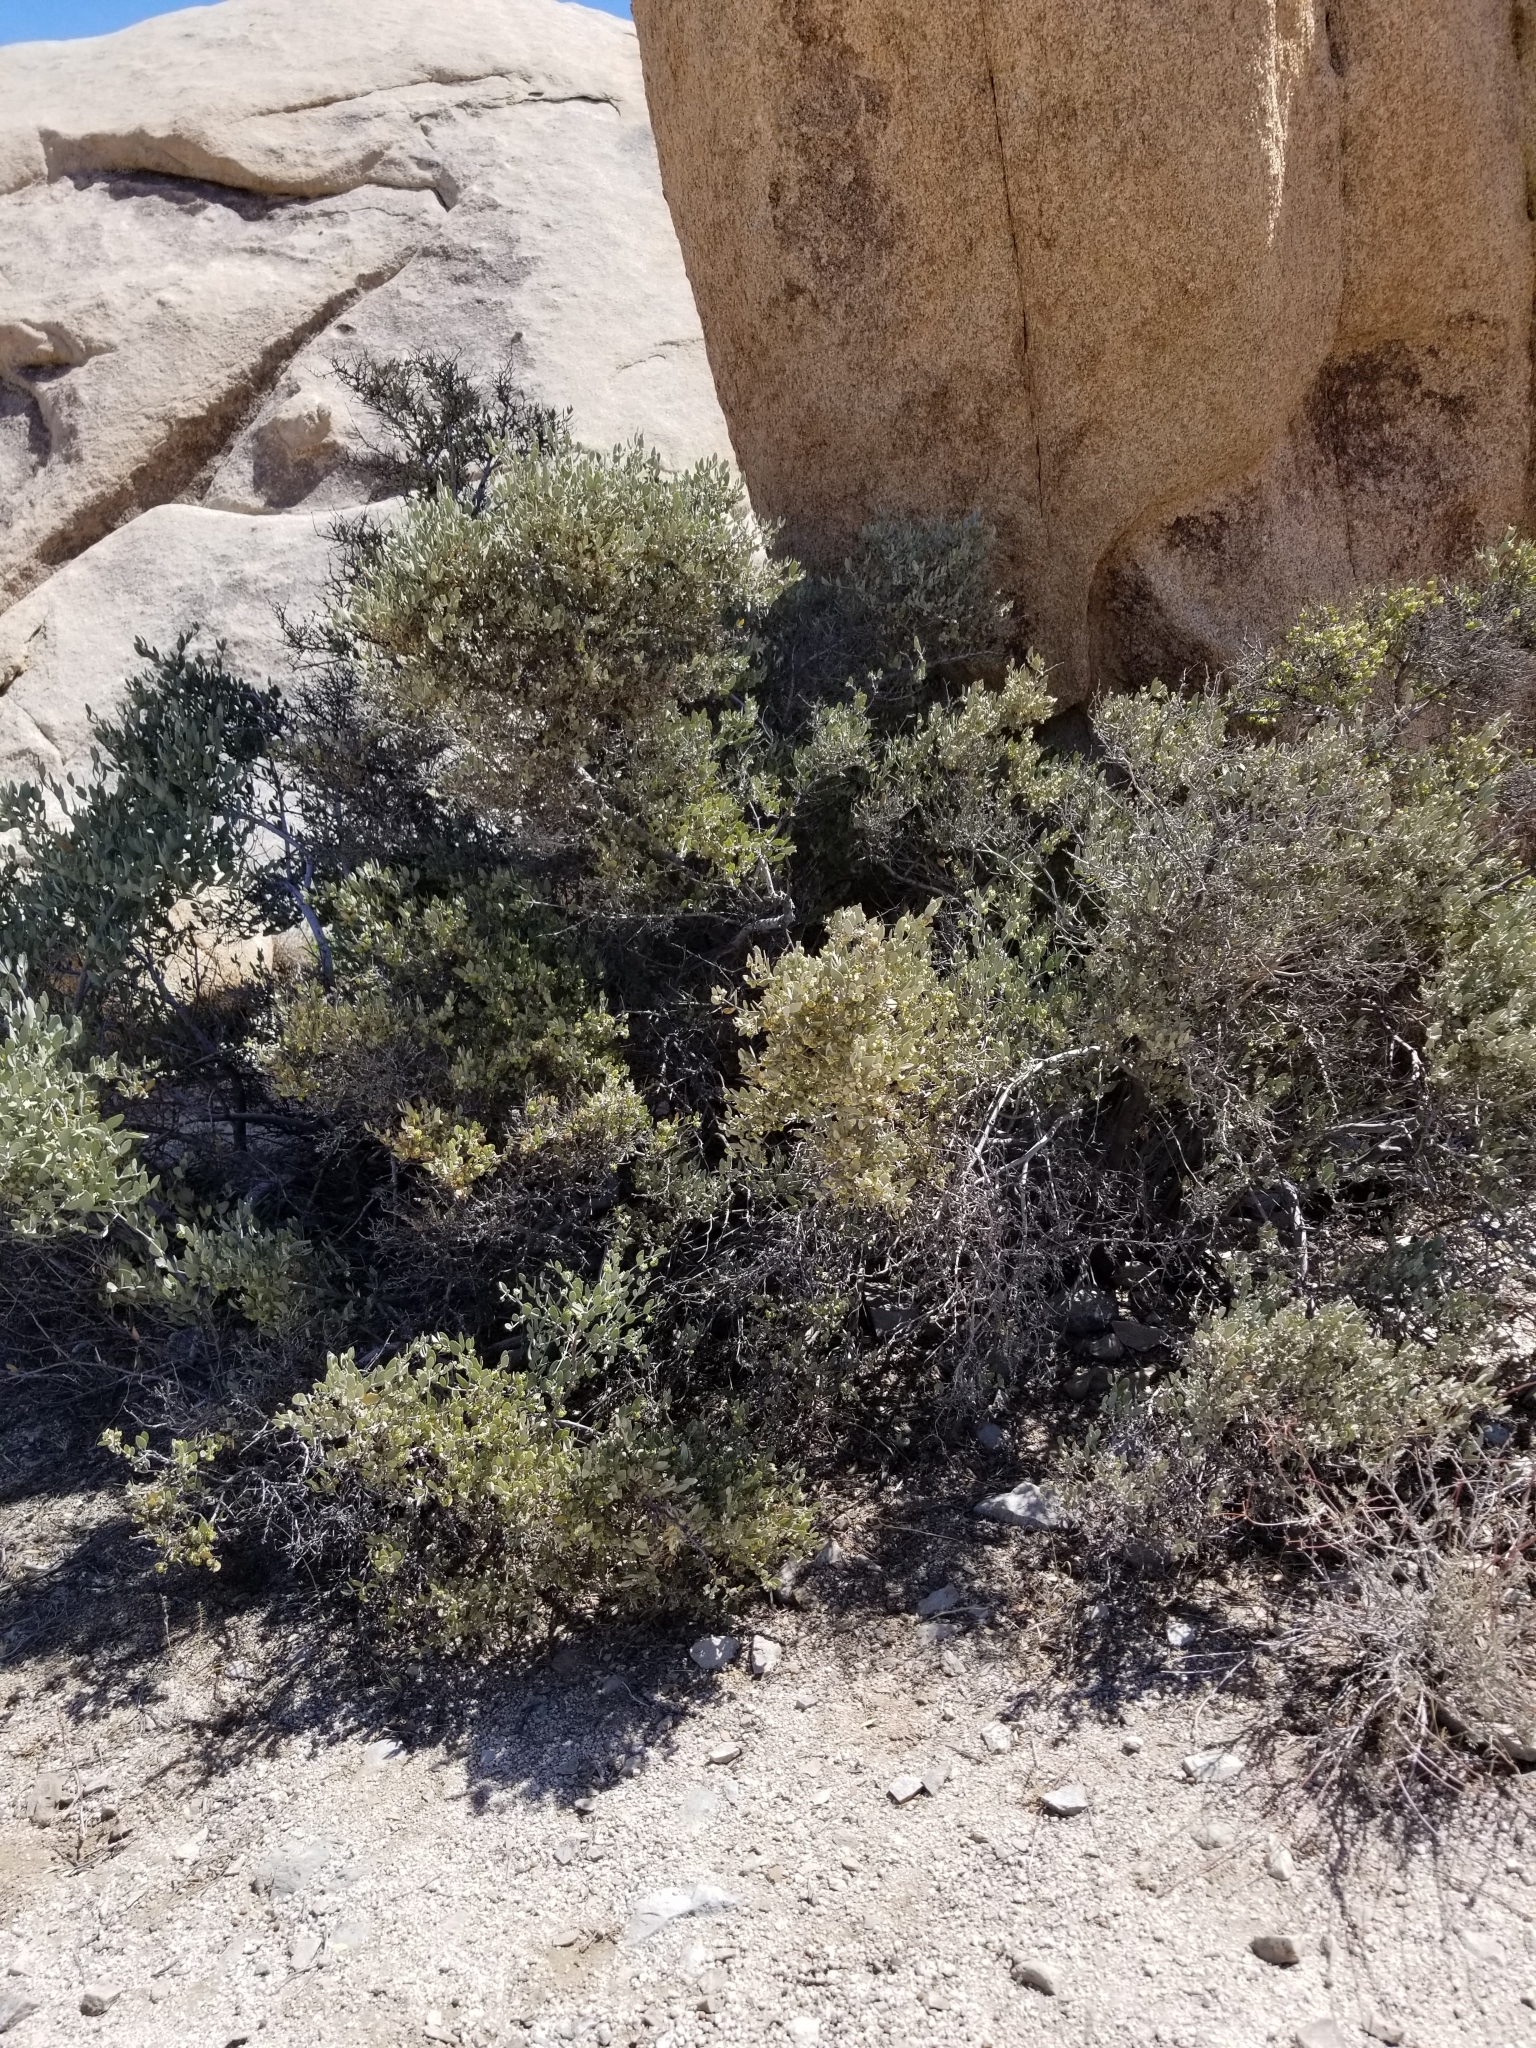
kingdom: Plantae
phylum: Tracheophyta
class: Magnoliopsida
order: Caryophyllales
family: Simmondsiaceae
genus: Simmondsia
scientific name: Simmondsia chinensis
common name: Jojoba
